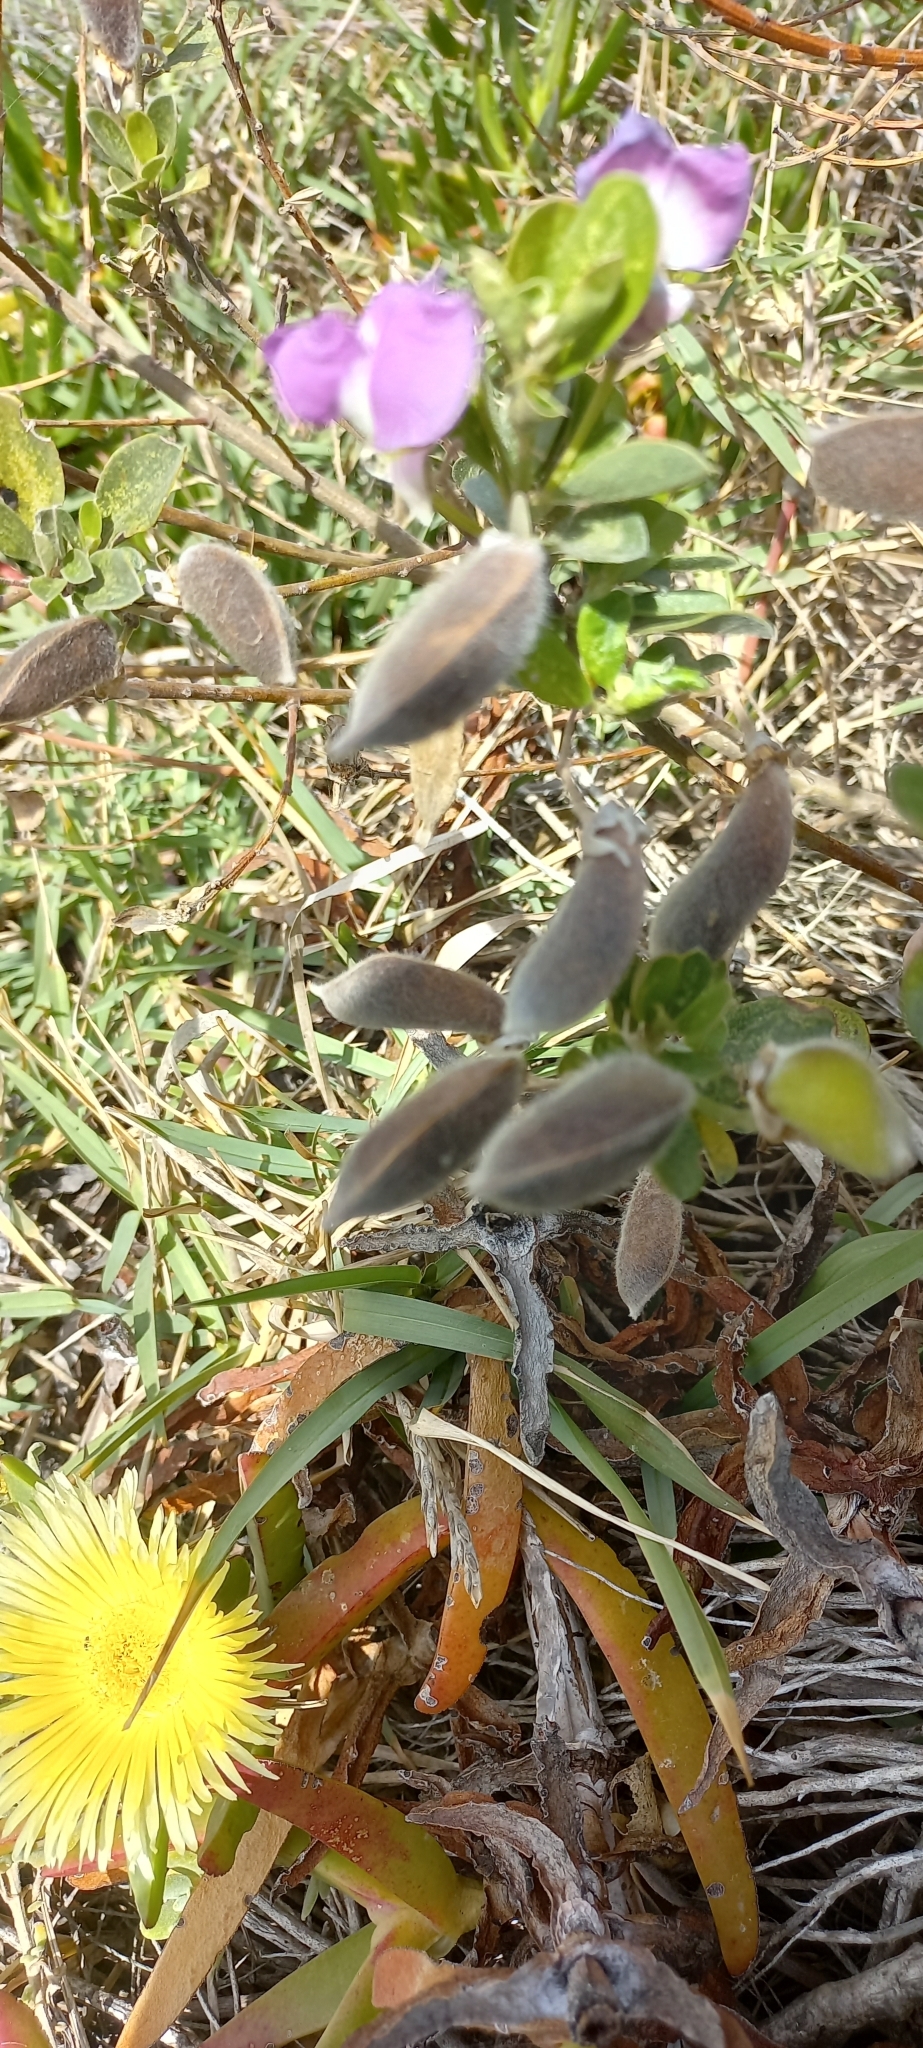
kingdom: Plantae
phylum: Tracheophyta
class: Magnoliopsida
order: Fabales
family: Fabaceae
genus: Podalyria
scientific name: Podalyria calyptrata
